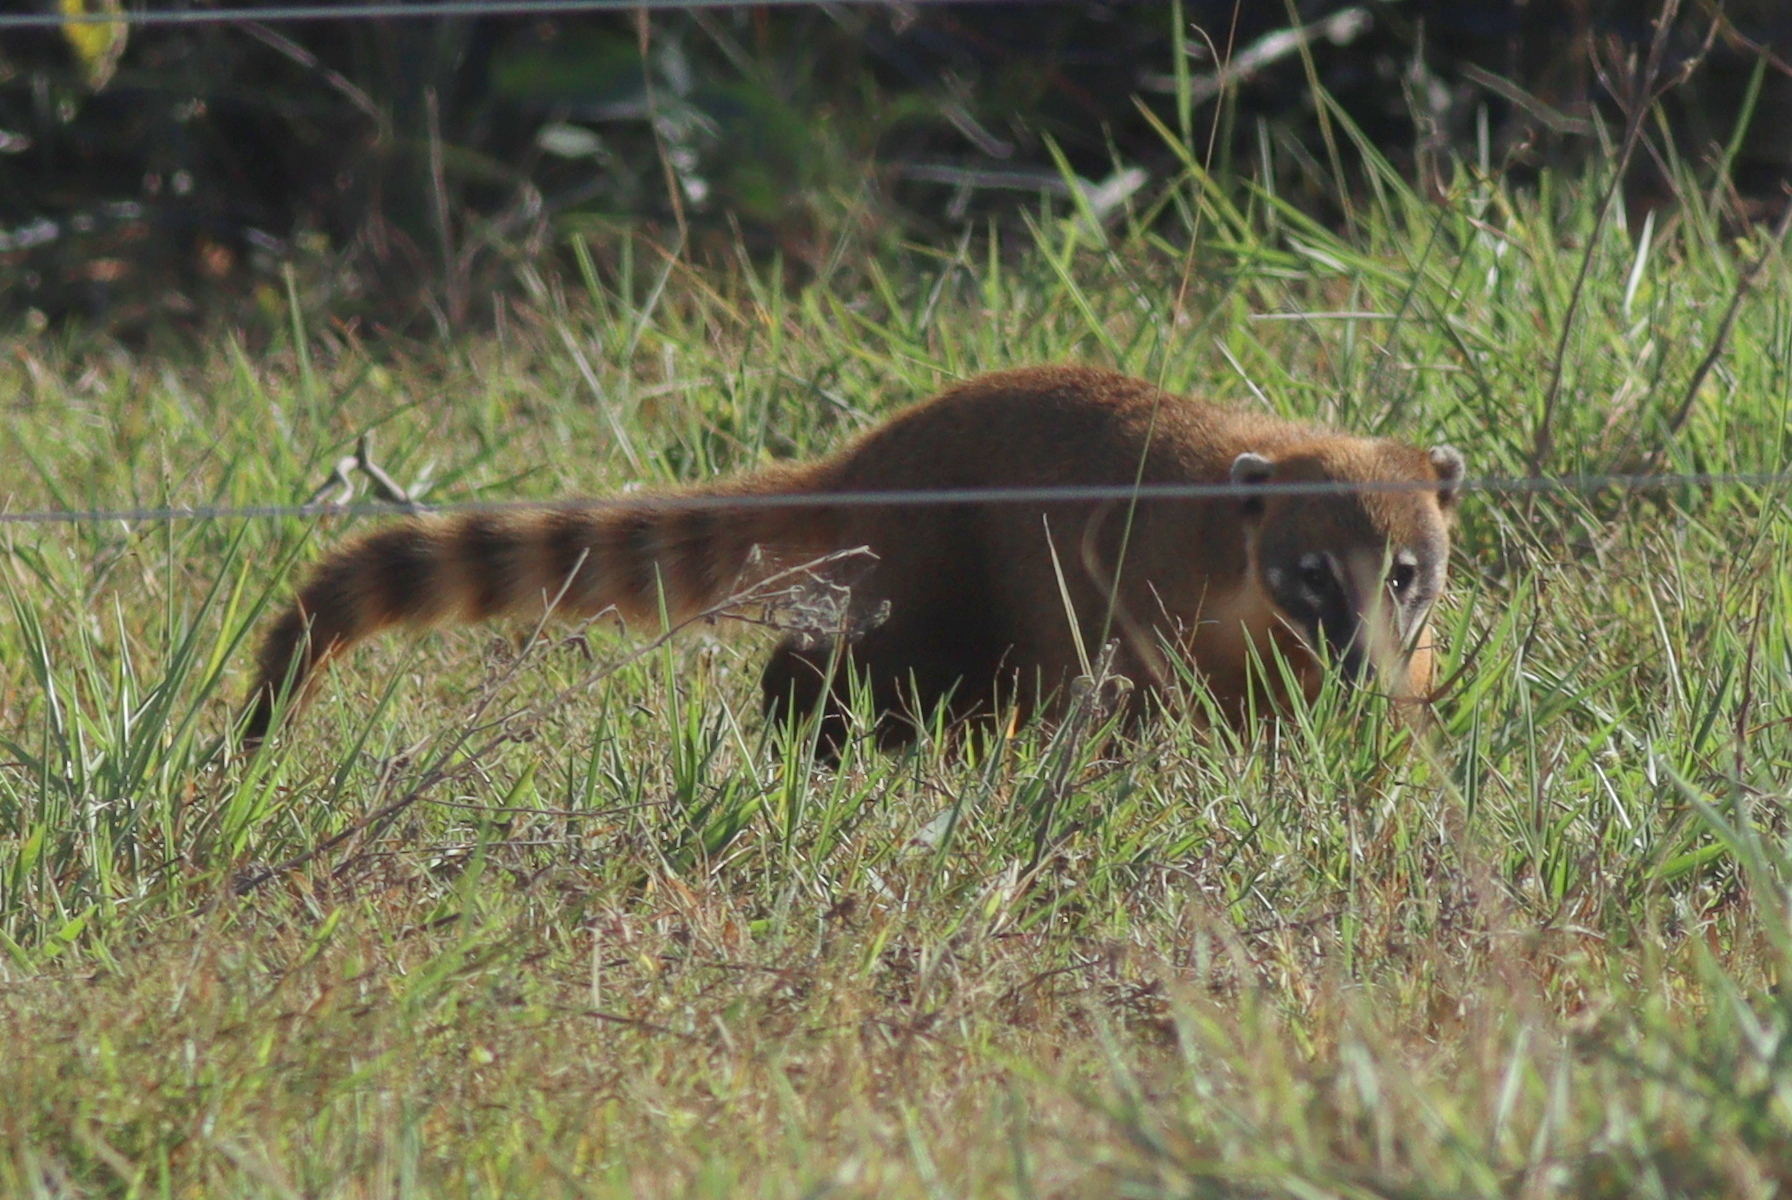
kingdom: Animalia
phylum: Chordata
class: Mammalia
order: Carnivora
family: Procyonidae
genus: Nasua
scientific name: Nasua nasua
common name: South american coati
